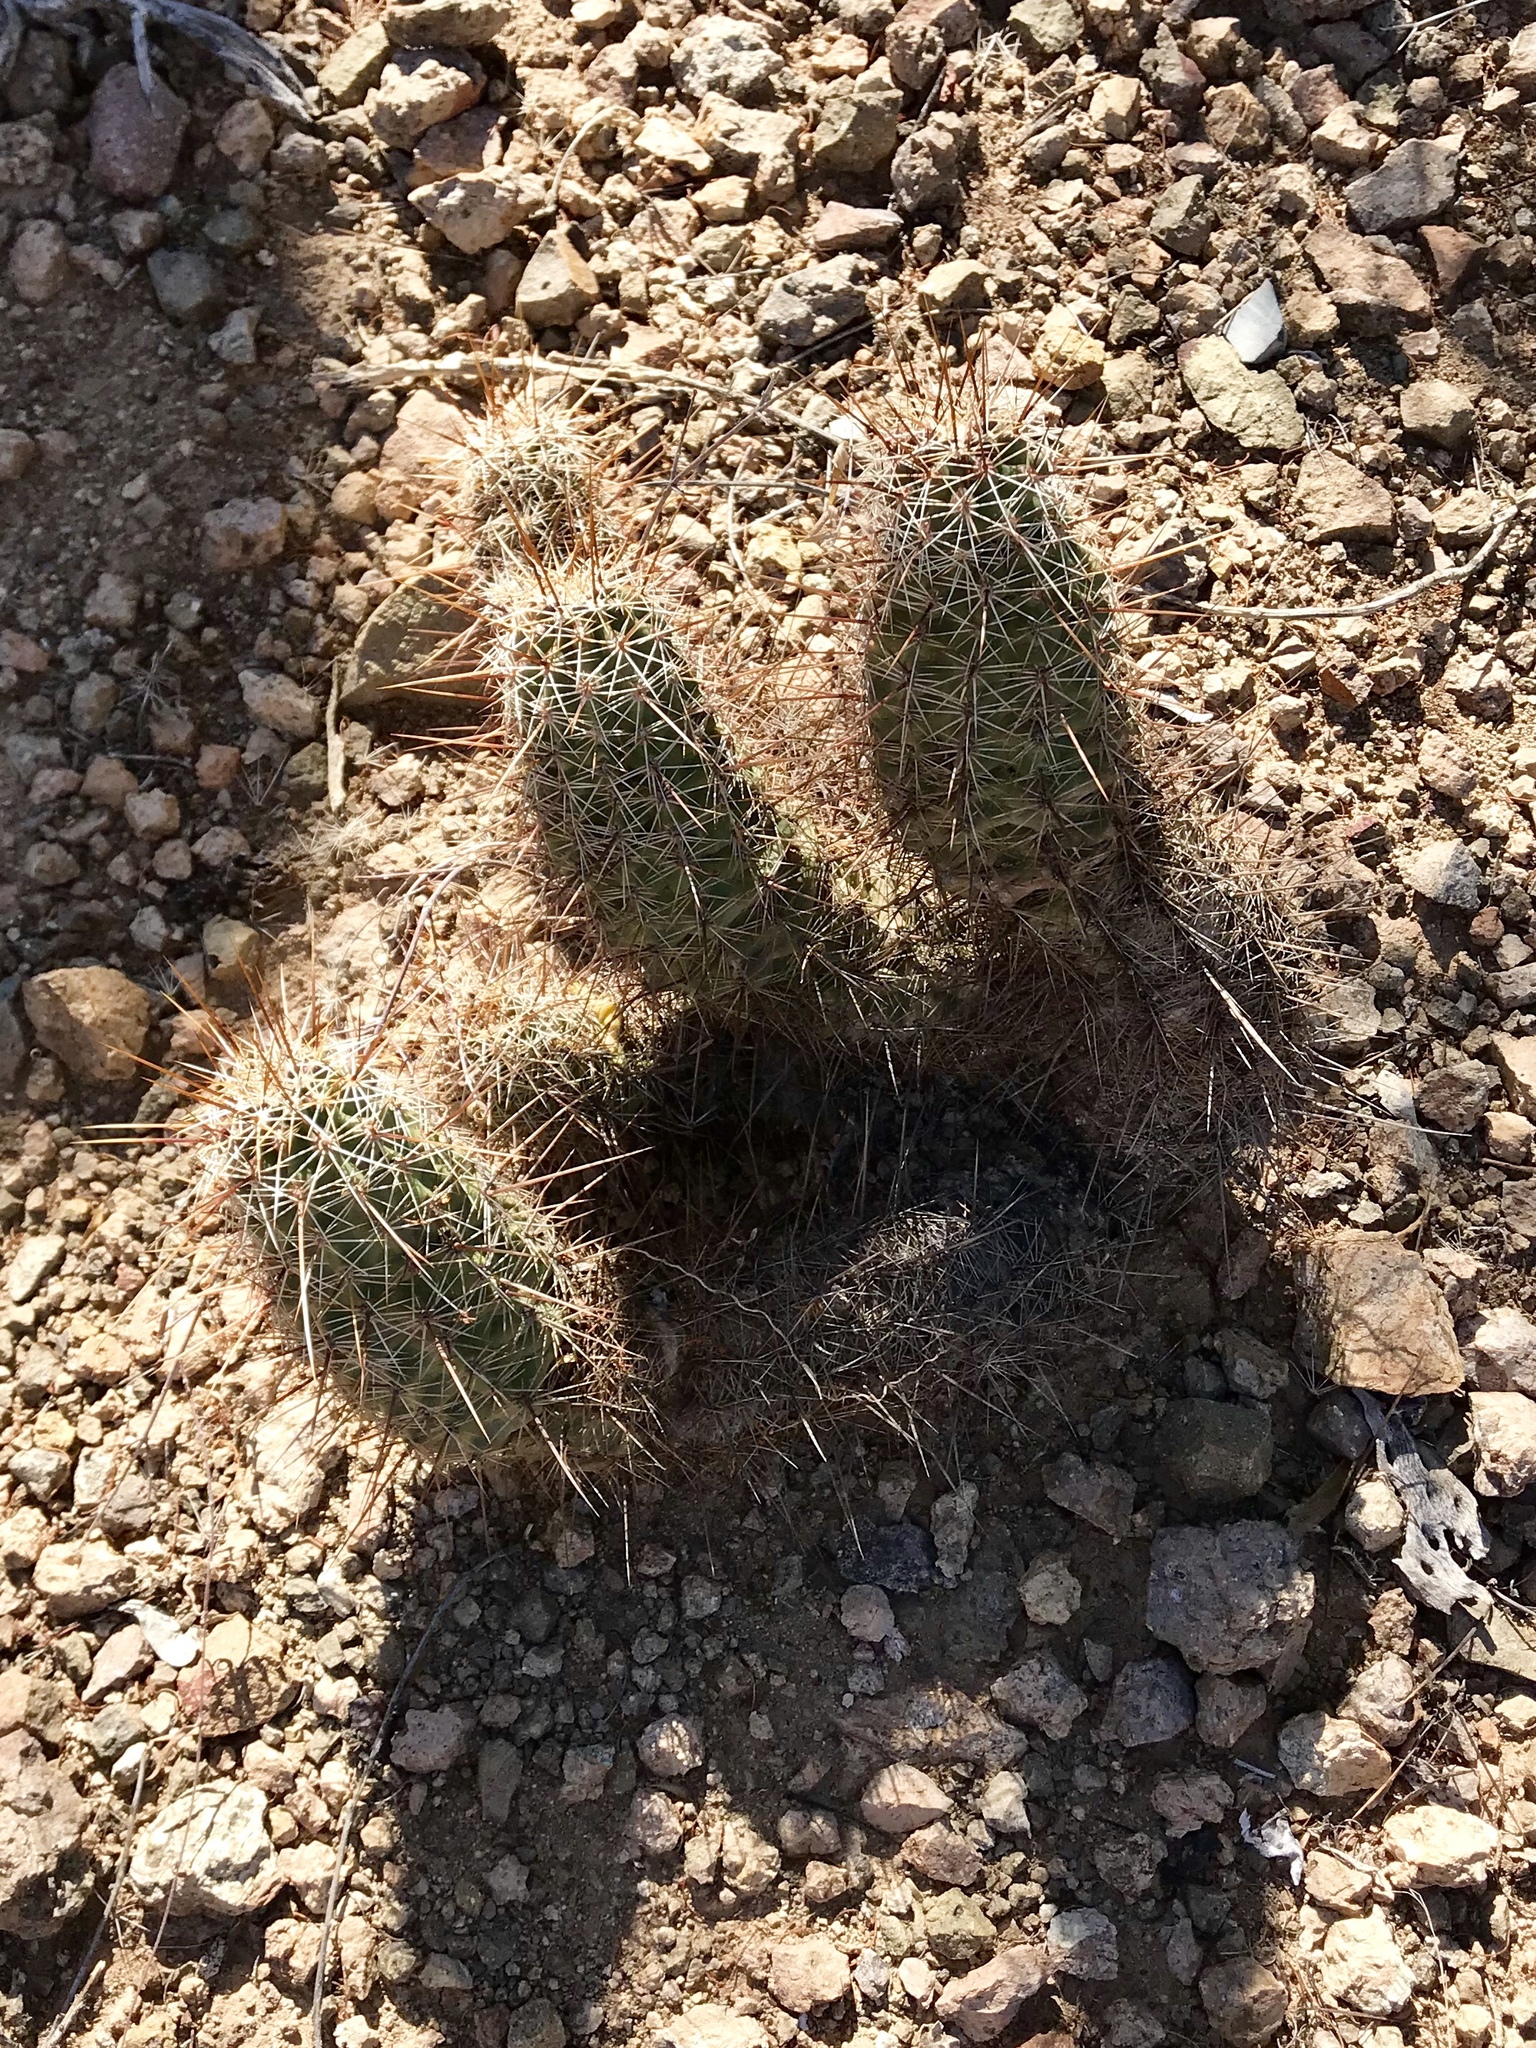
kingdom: Plantae
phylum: Tracheophyta
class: Magnoliopsida
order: Caryophyllales
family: Cactaceae
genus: Echinocereus
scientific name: Echinocereus fasciculatus
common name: Bundle hedgehog
